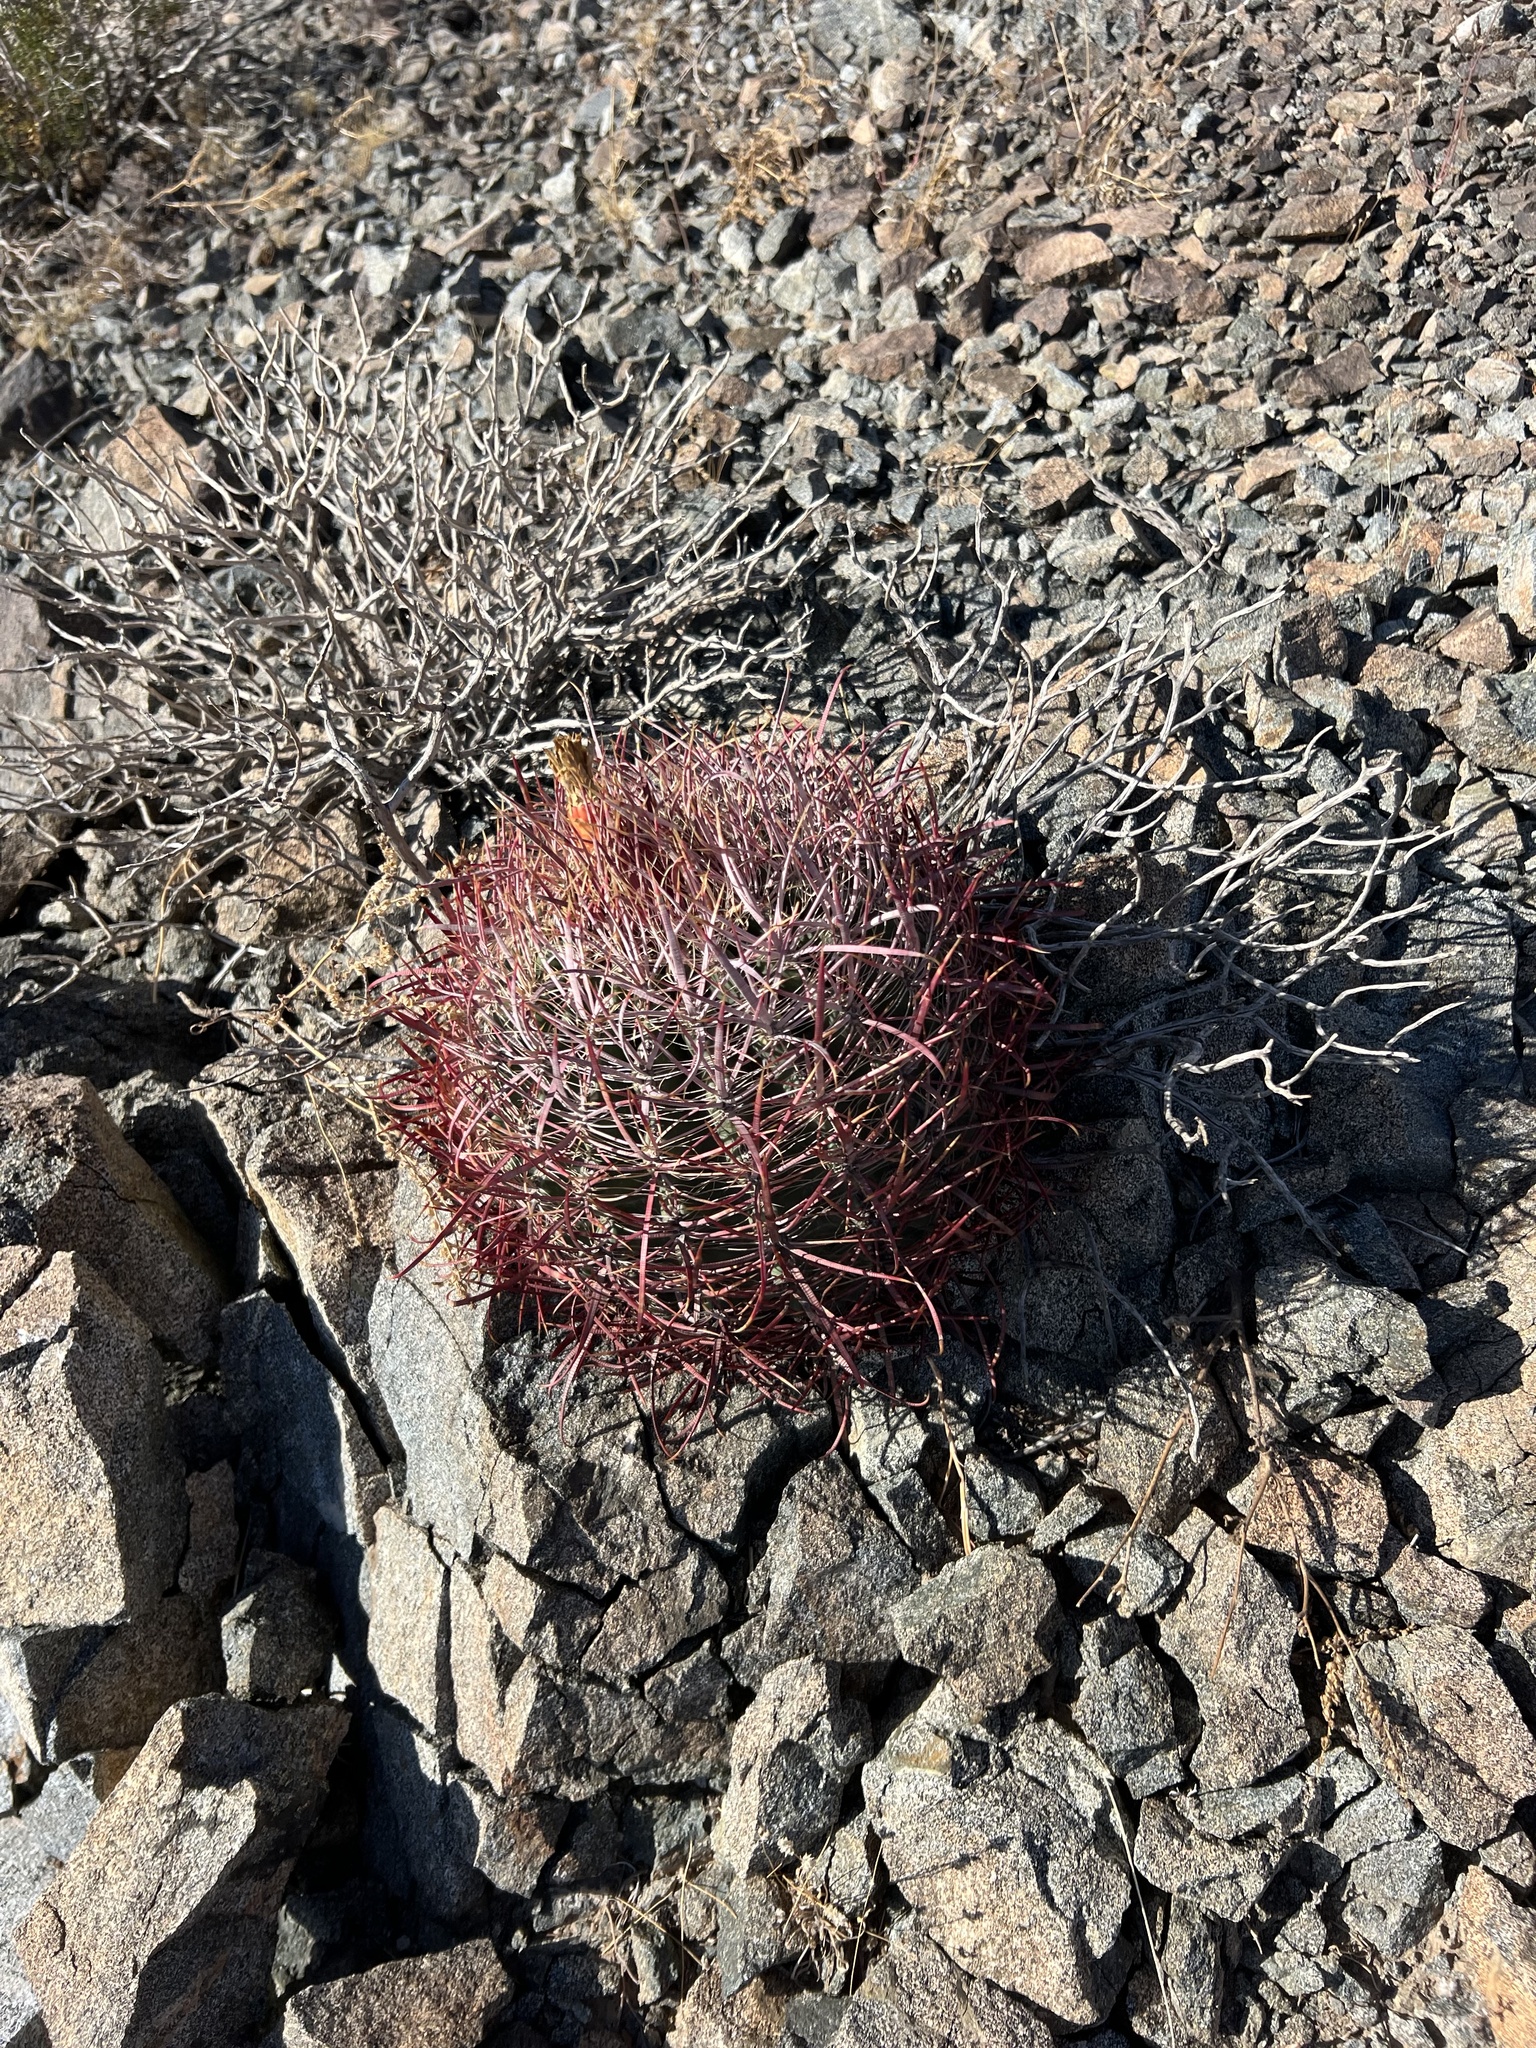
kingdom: Plantae
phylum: Tracheophyta
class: Magnoliopsida
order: Caryophyllales
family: Cactaceae
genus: Ferocactus
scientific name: Ferocactus cylindraceus
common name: California barrel cactus
